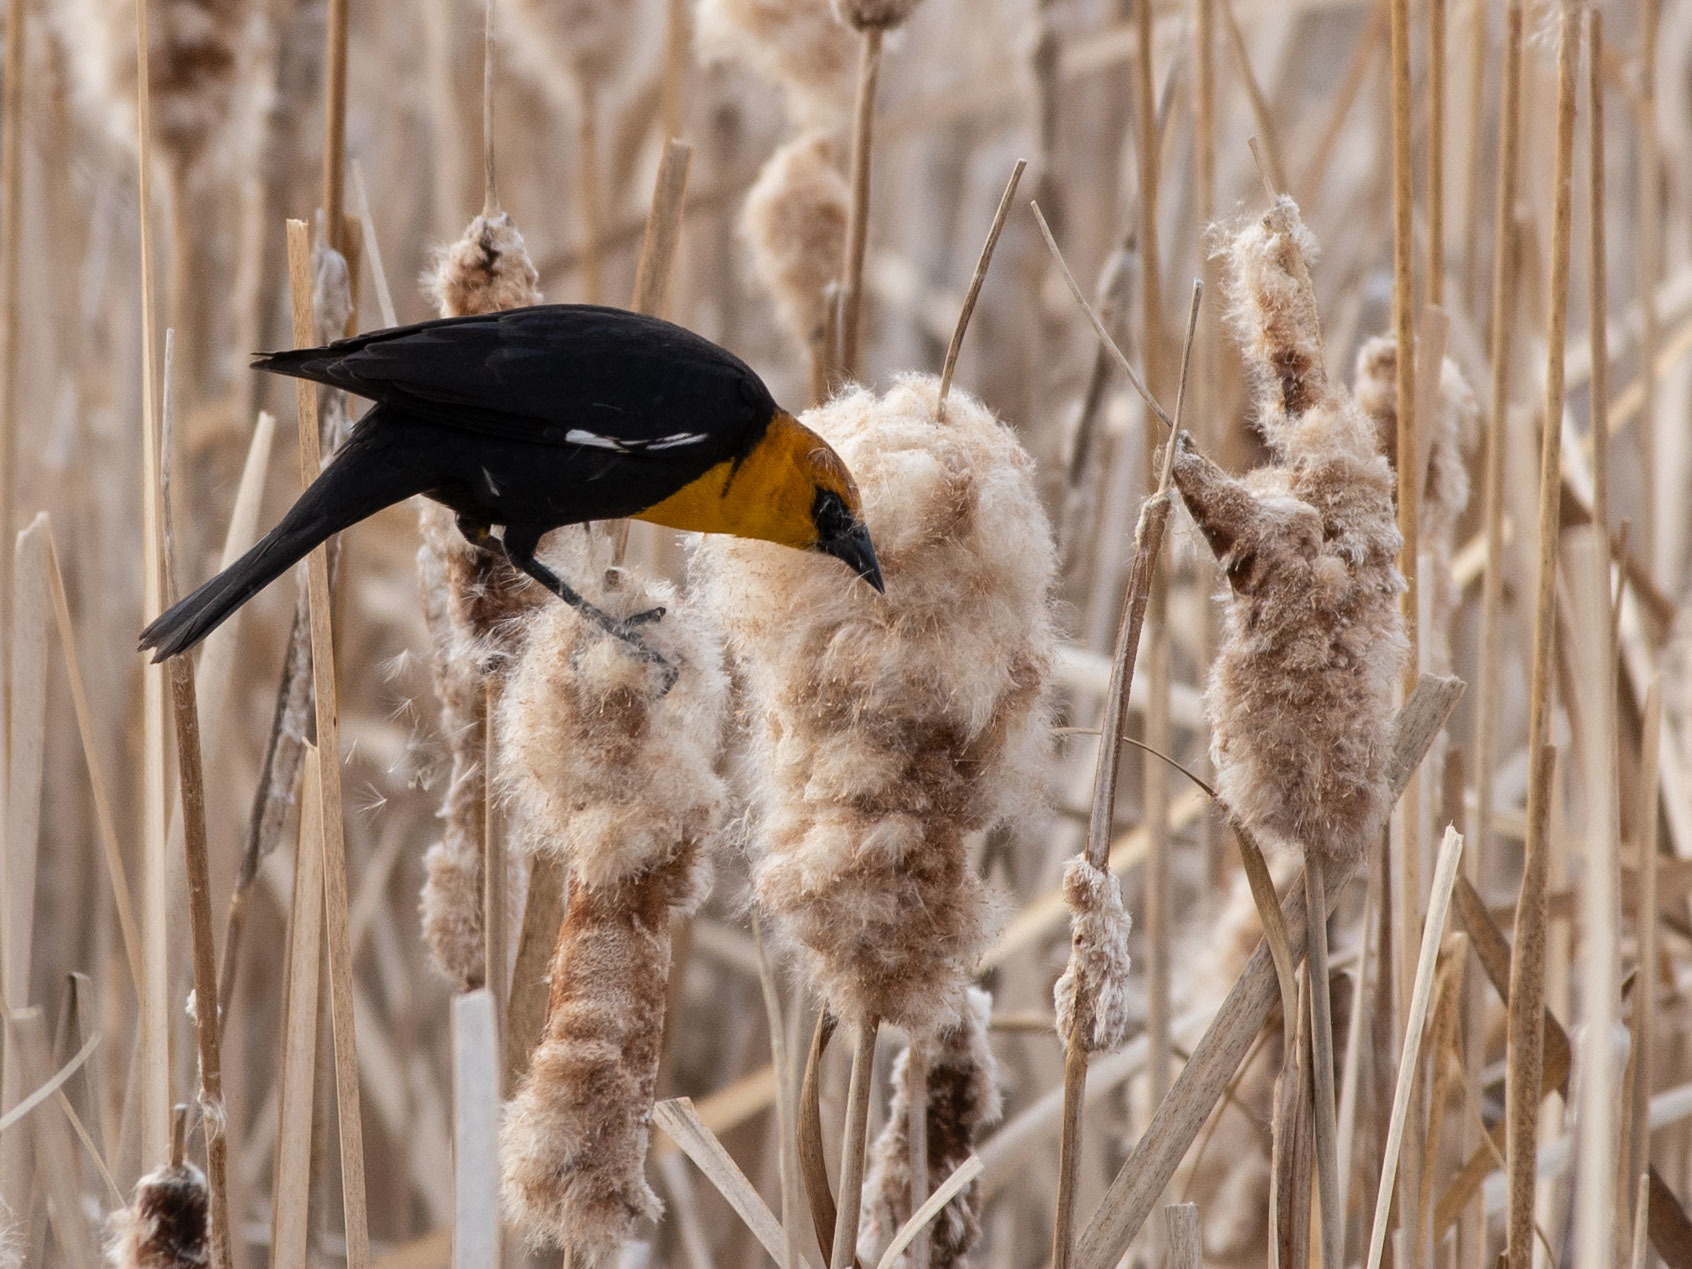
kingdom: Animalia
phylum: Chordata
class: Aves
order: Passeriformes
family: Icteridae
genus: Xanthocephalus
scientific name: Xanthocephalus xanthocephalus
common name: Yellow-headed blackbird
